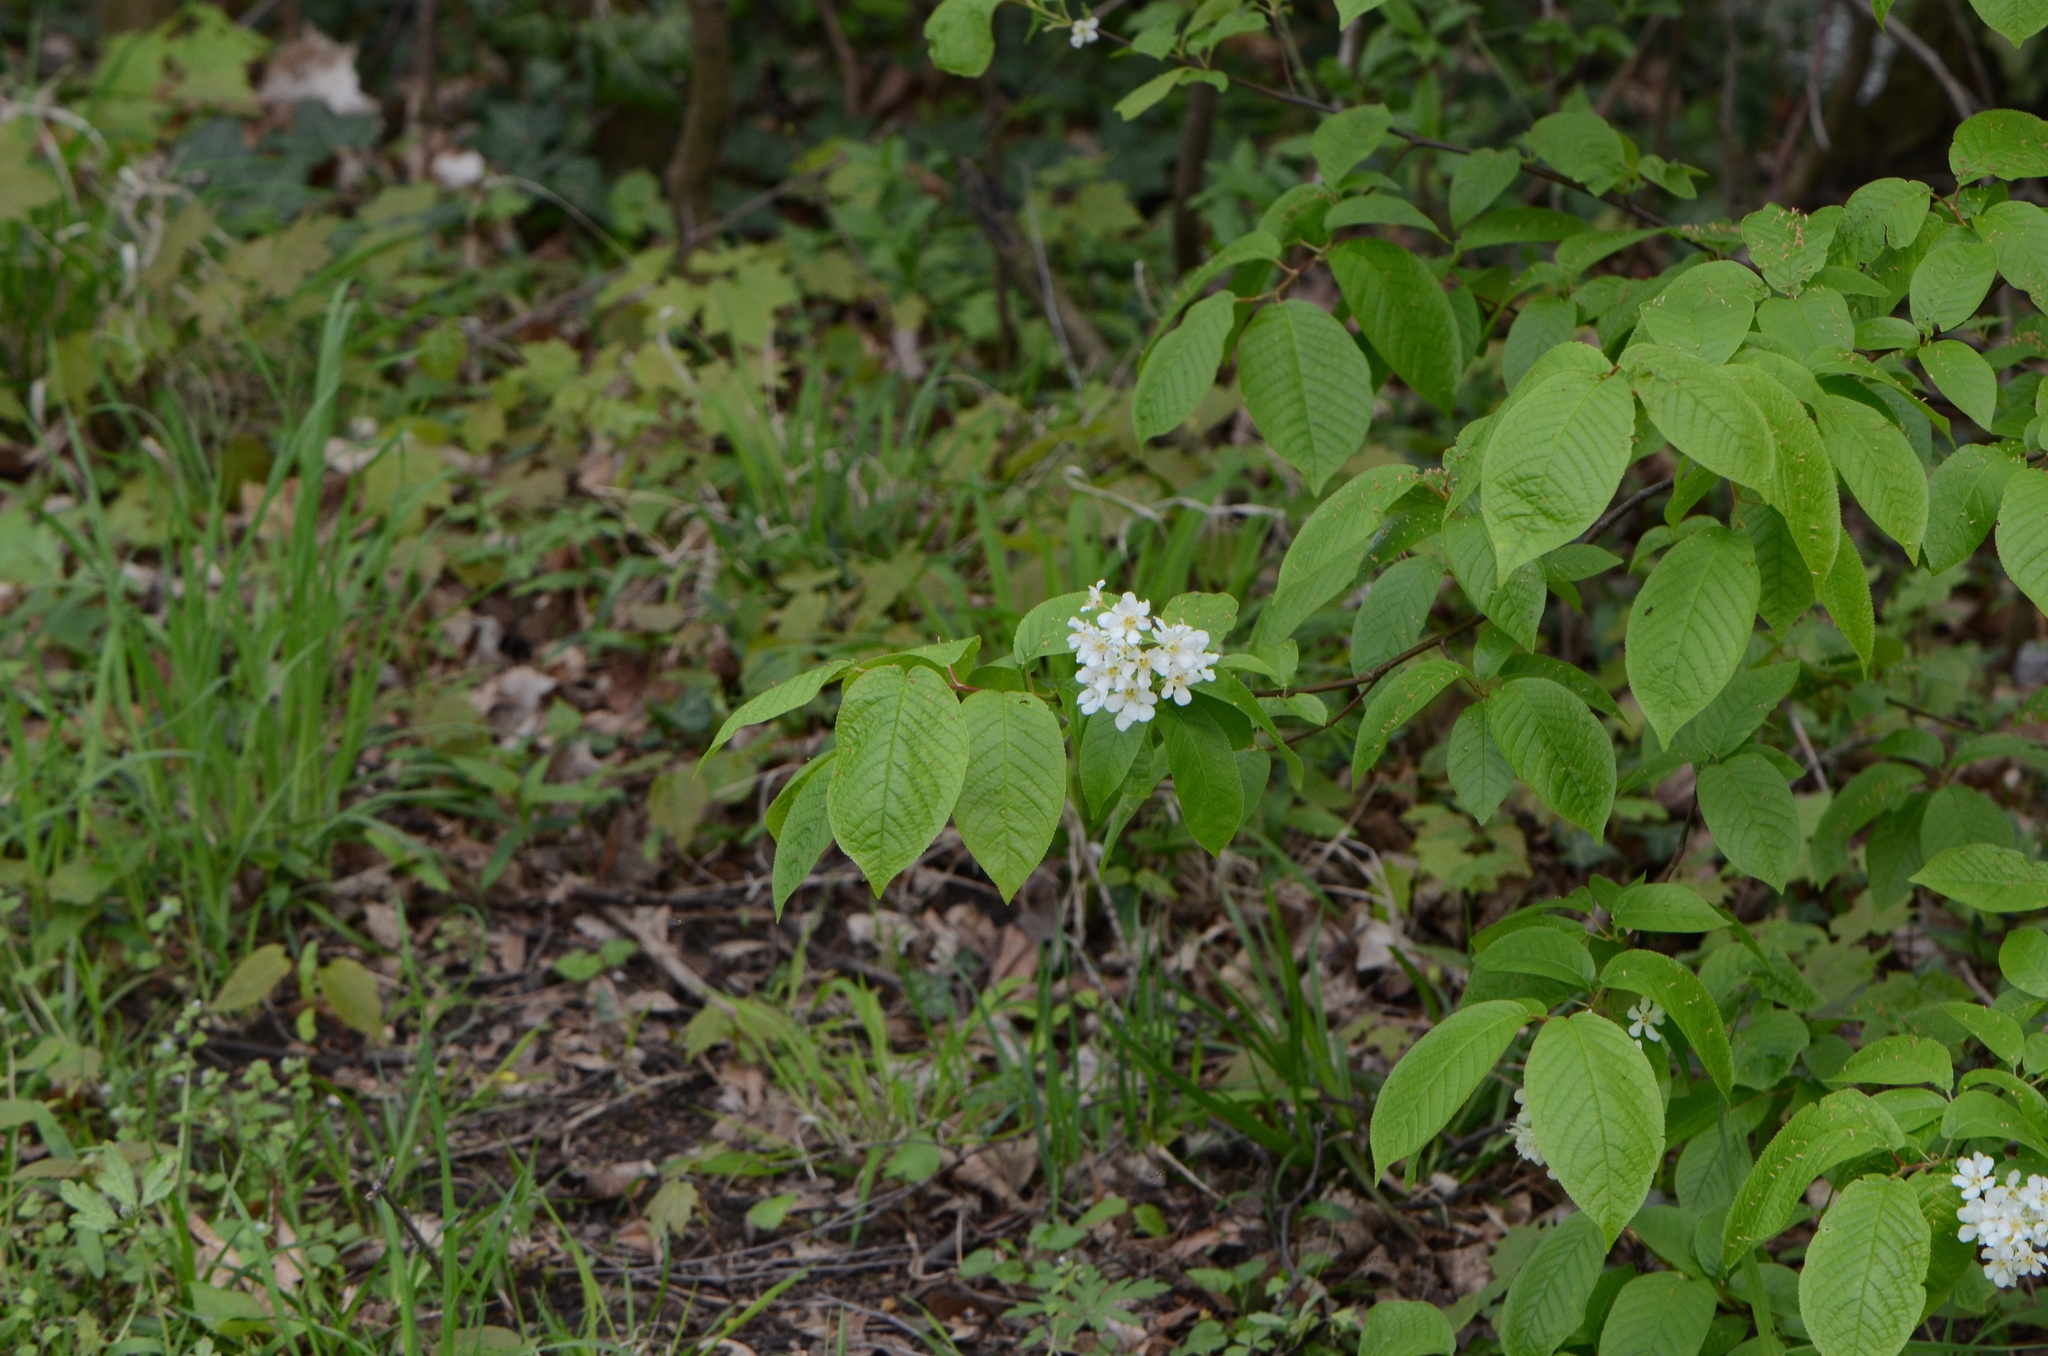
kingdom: Plantae
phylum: Tracheophyta
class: Magnoliopsida
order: Rosales
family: Rosaceae
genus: Prunus
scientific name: Prunus padus
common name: Bird cherry
